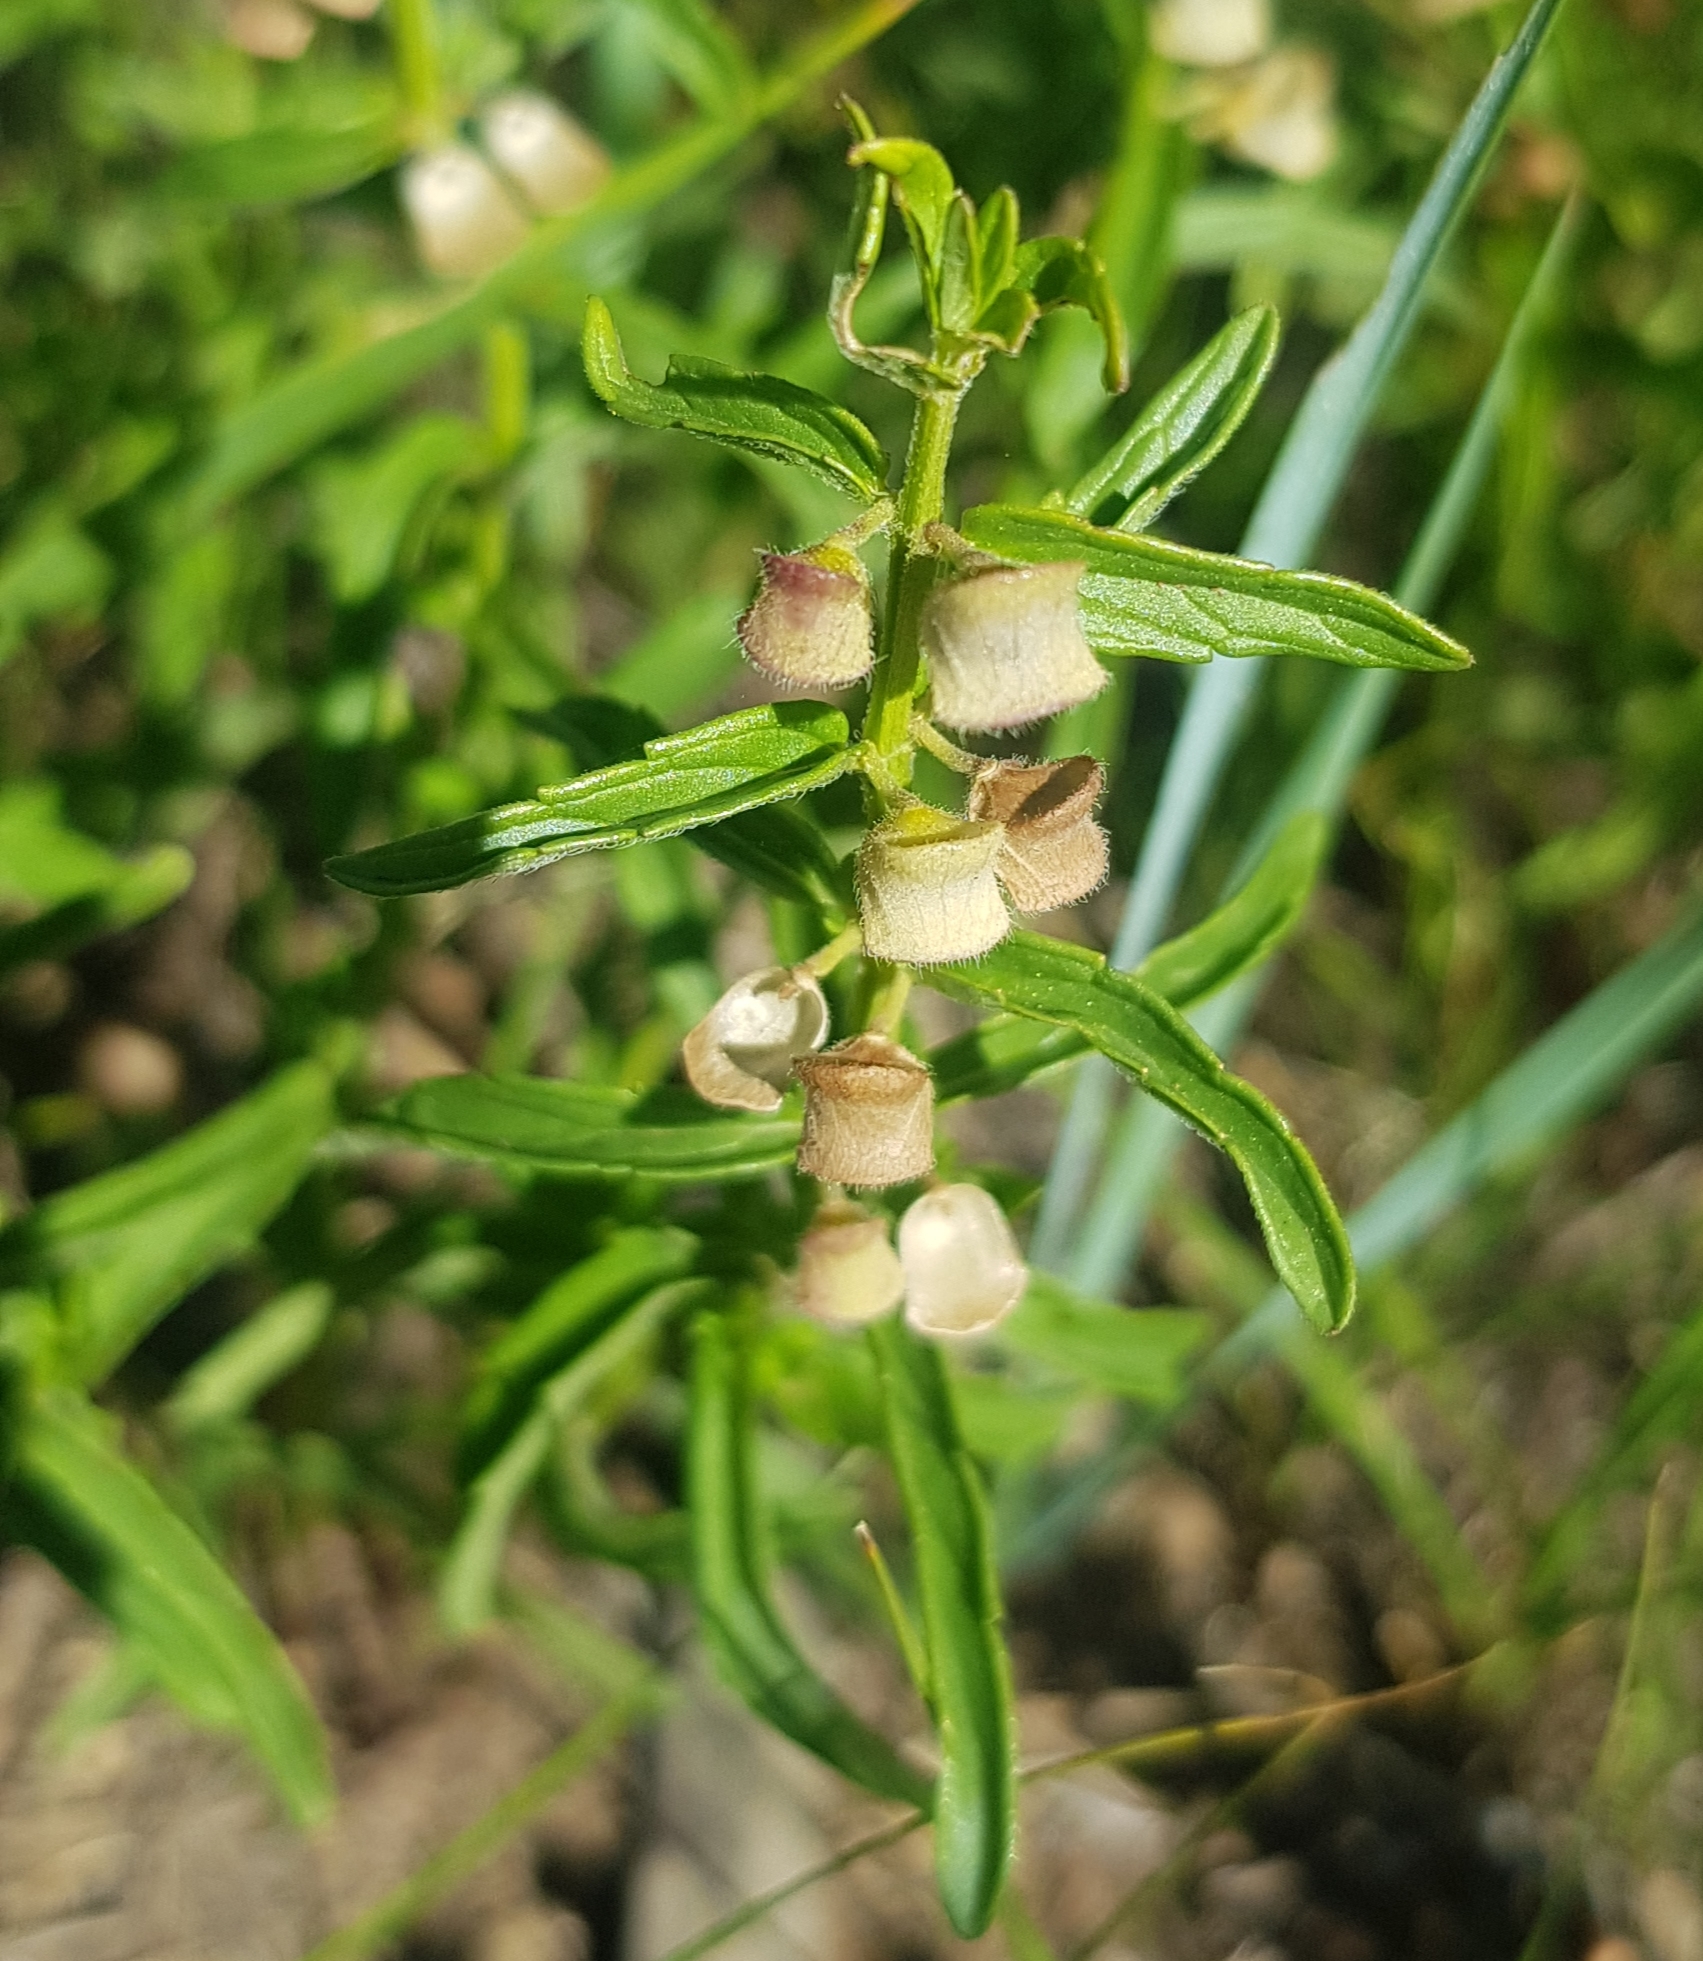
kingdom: Plantae
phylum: Tracheophyta
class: Magnoliopsida
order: Lamiales
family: Lamiaceae
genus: Scutellaria
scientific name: Scutellaria scordiifolia
